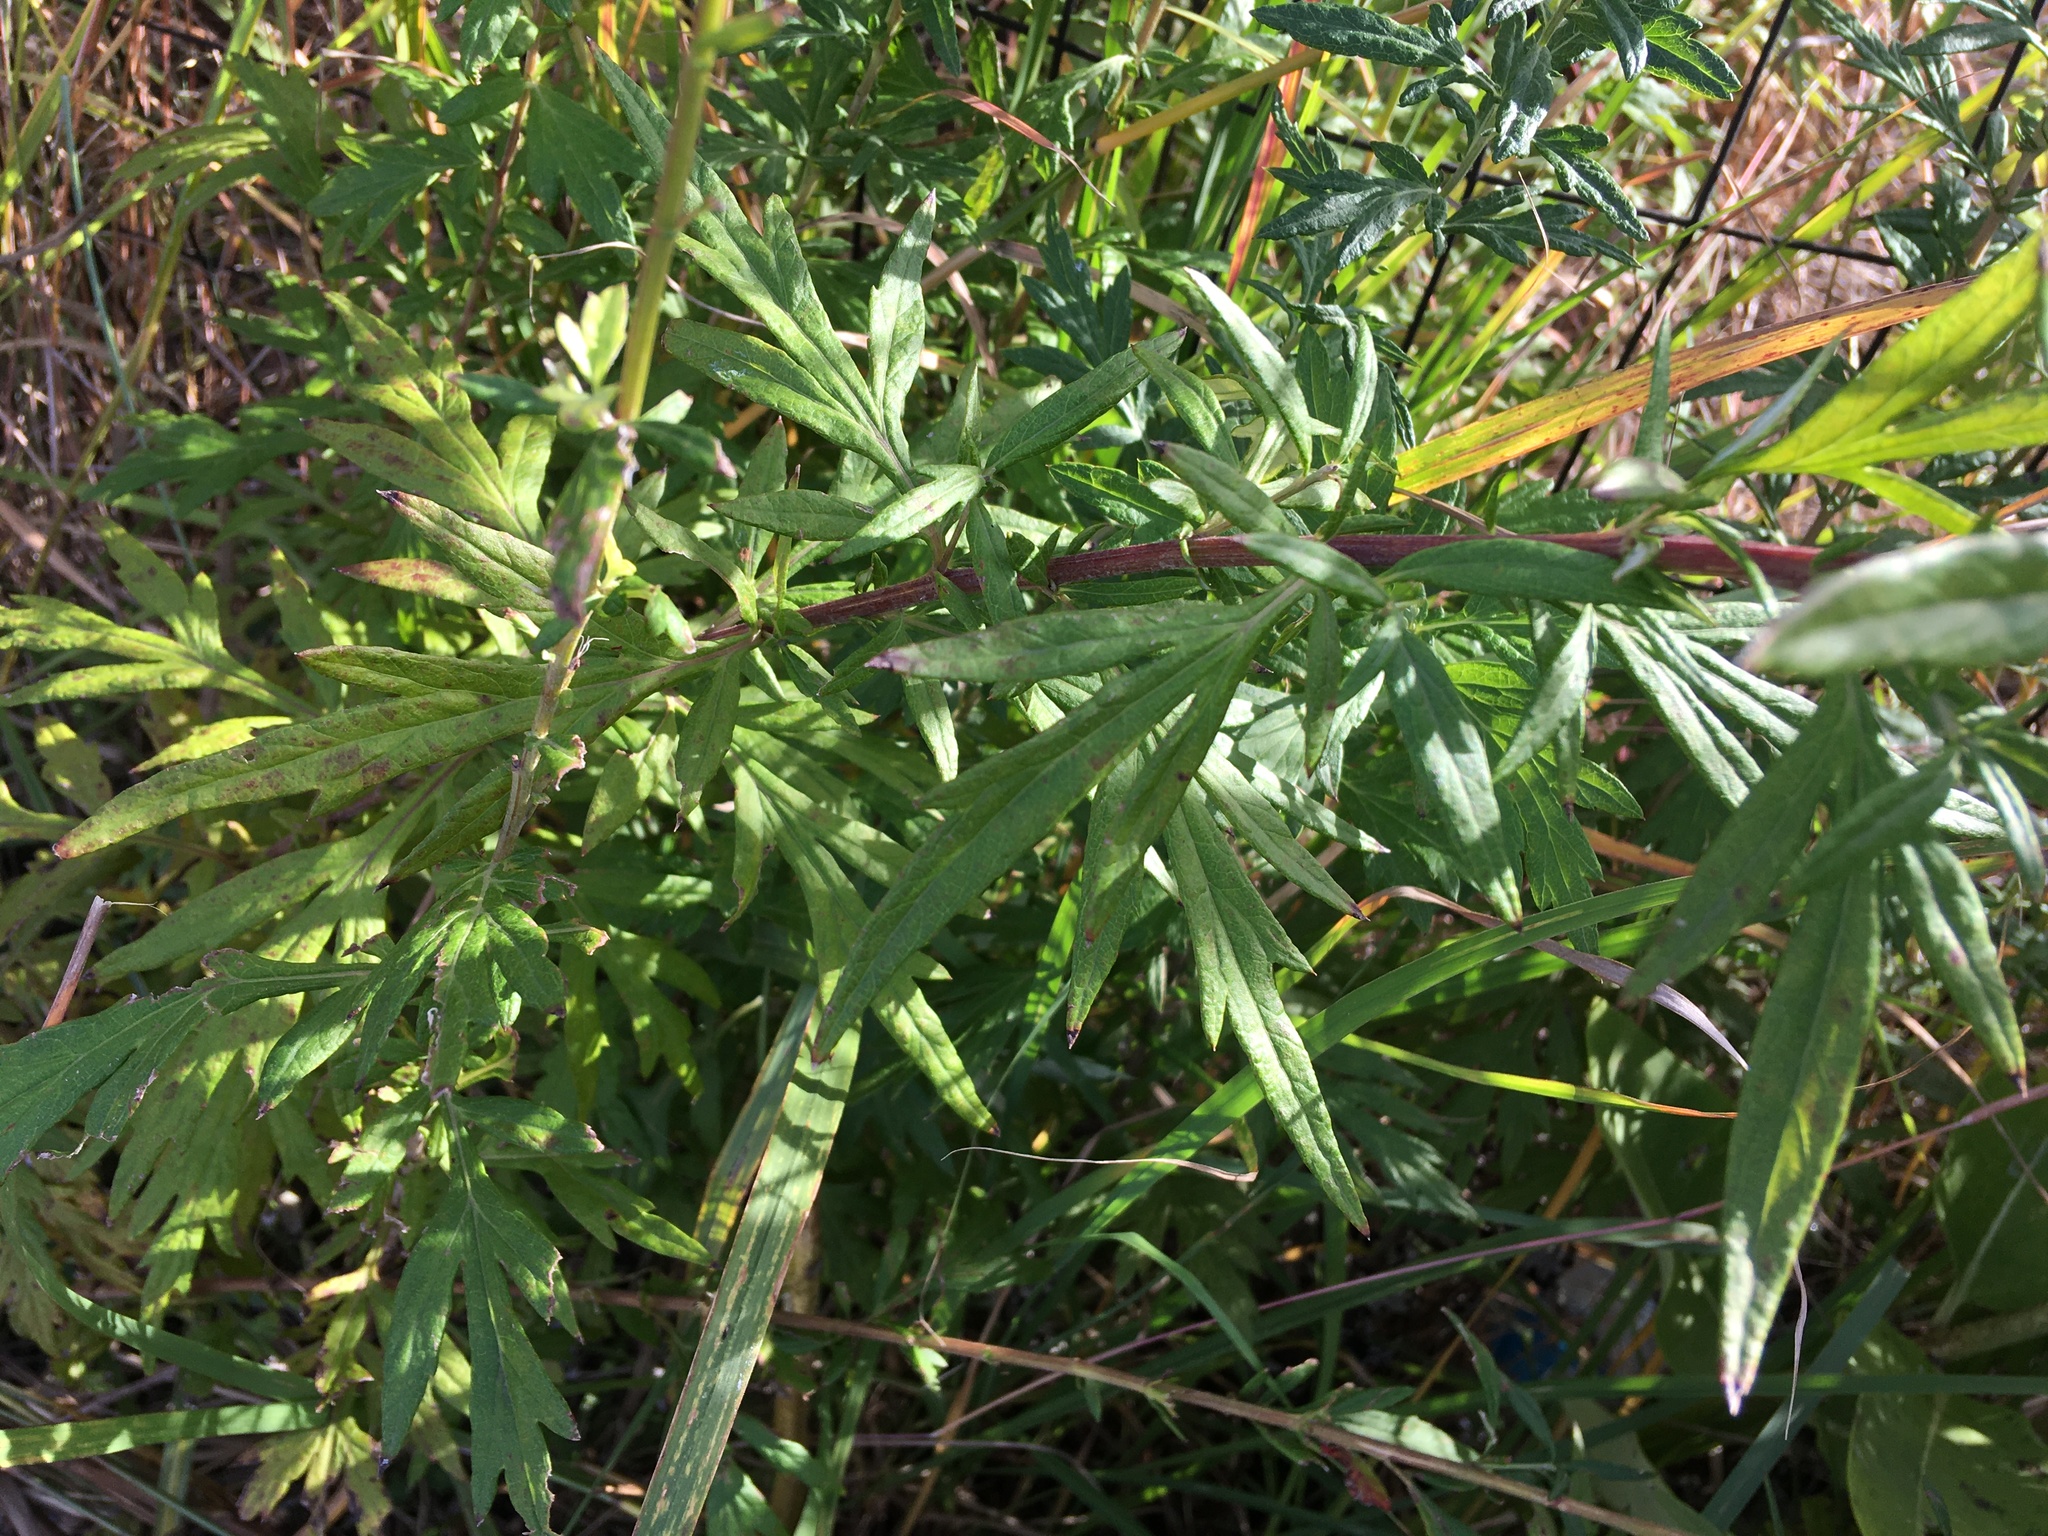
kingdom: Plantae
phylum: Tracheophyta
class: Magnoliopsida
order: Asterales
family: Asteraceae
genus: Artemisia
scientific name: Artemisia vulgaris
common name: Mugwort
